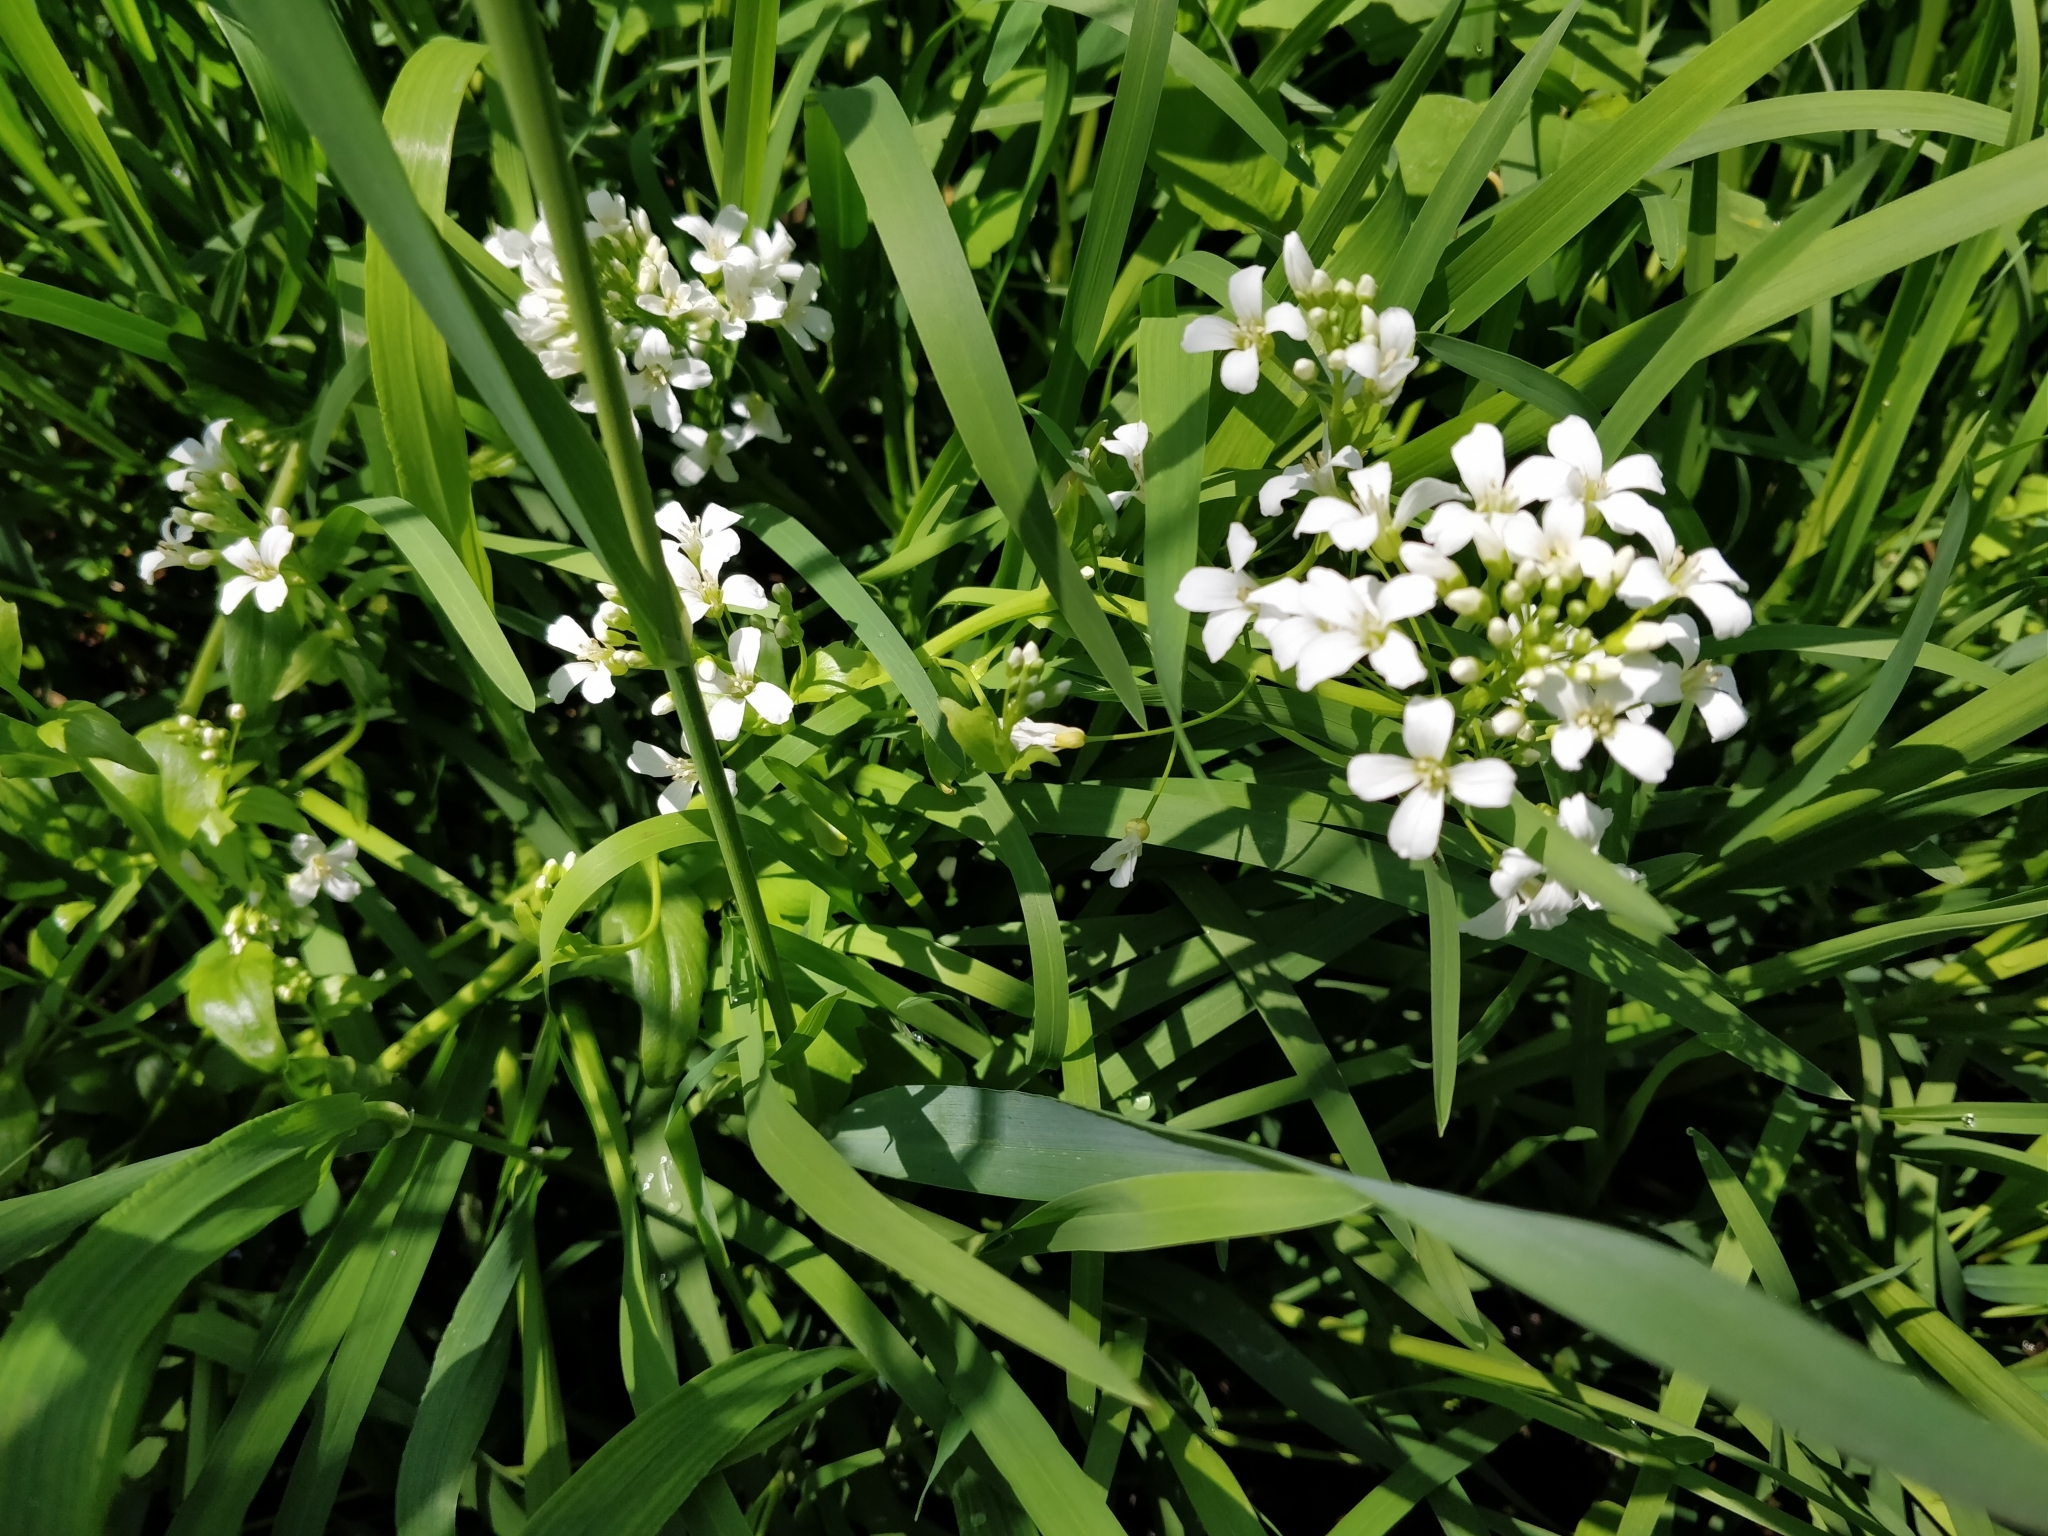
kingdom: Plantae
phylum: Tracheophyta
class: Magnoliopsida
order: Brassicales
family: Brassicaceae
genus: Cardamine
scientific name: Cardamine bulbosa
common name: Spring cress
